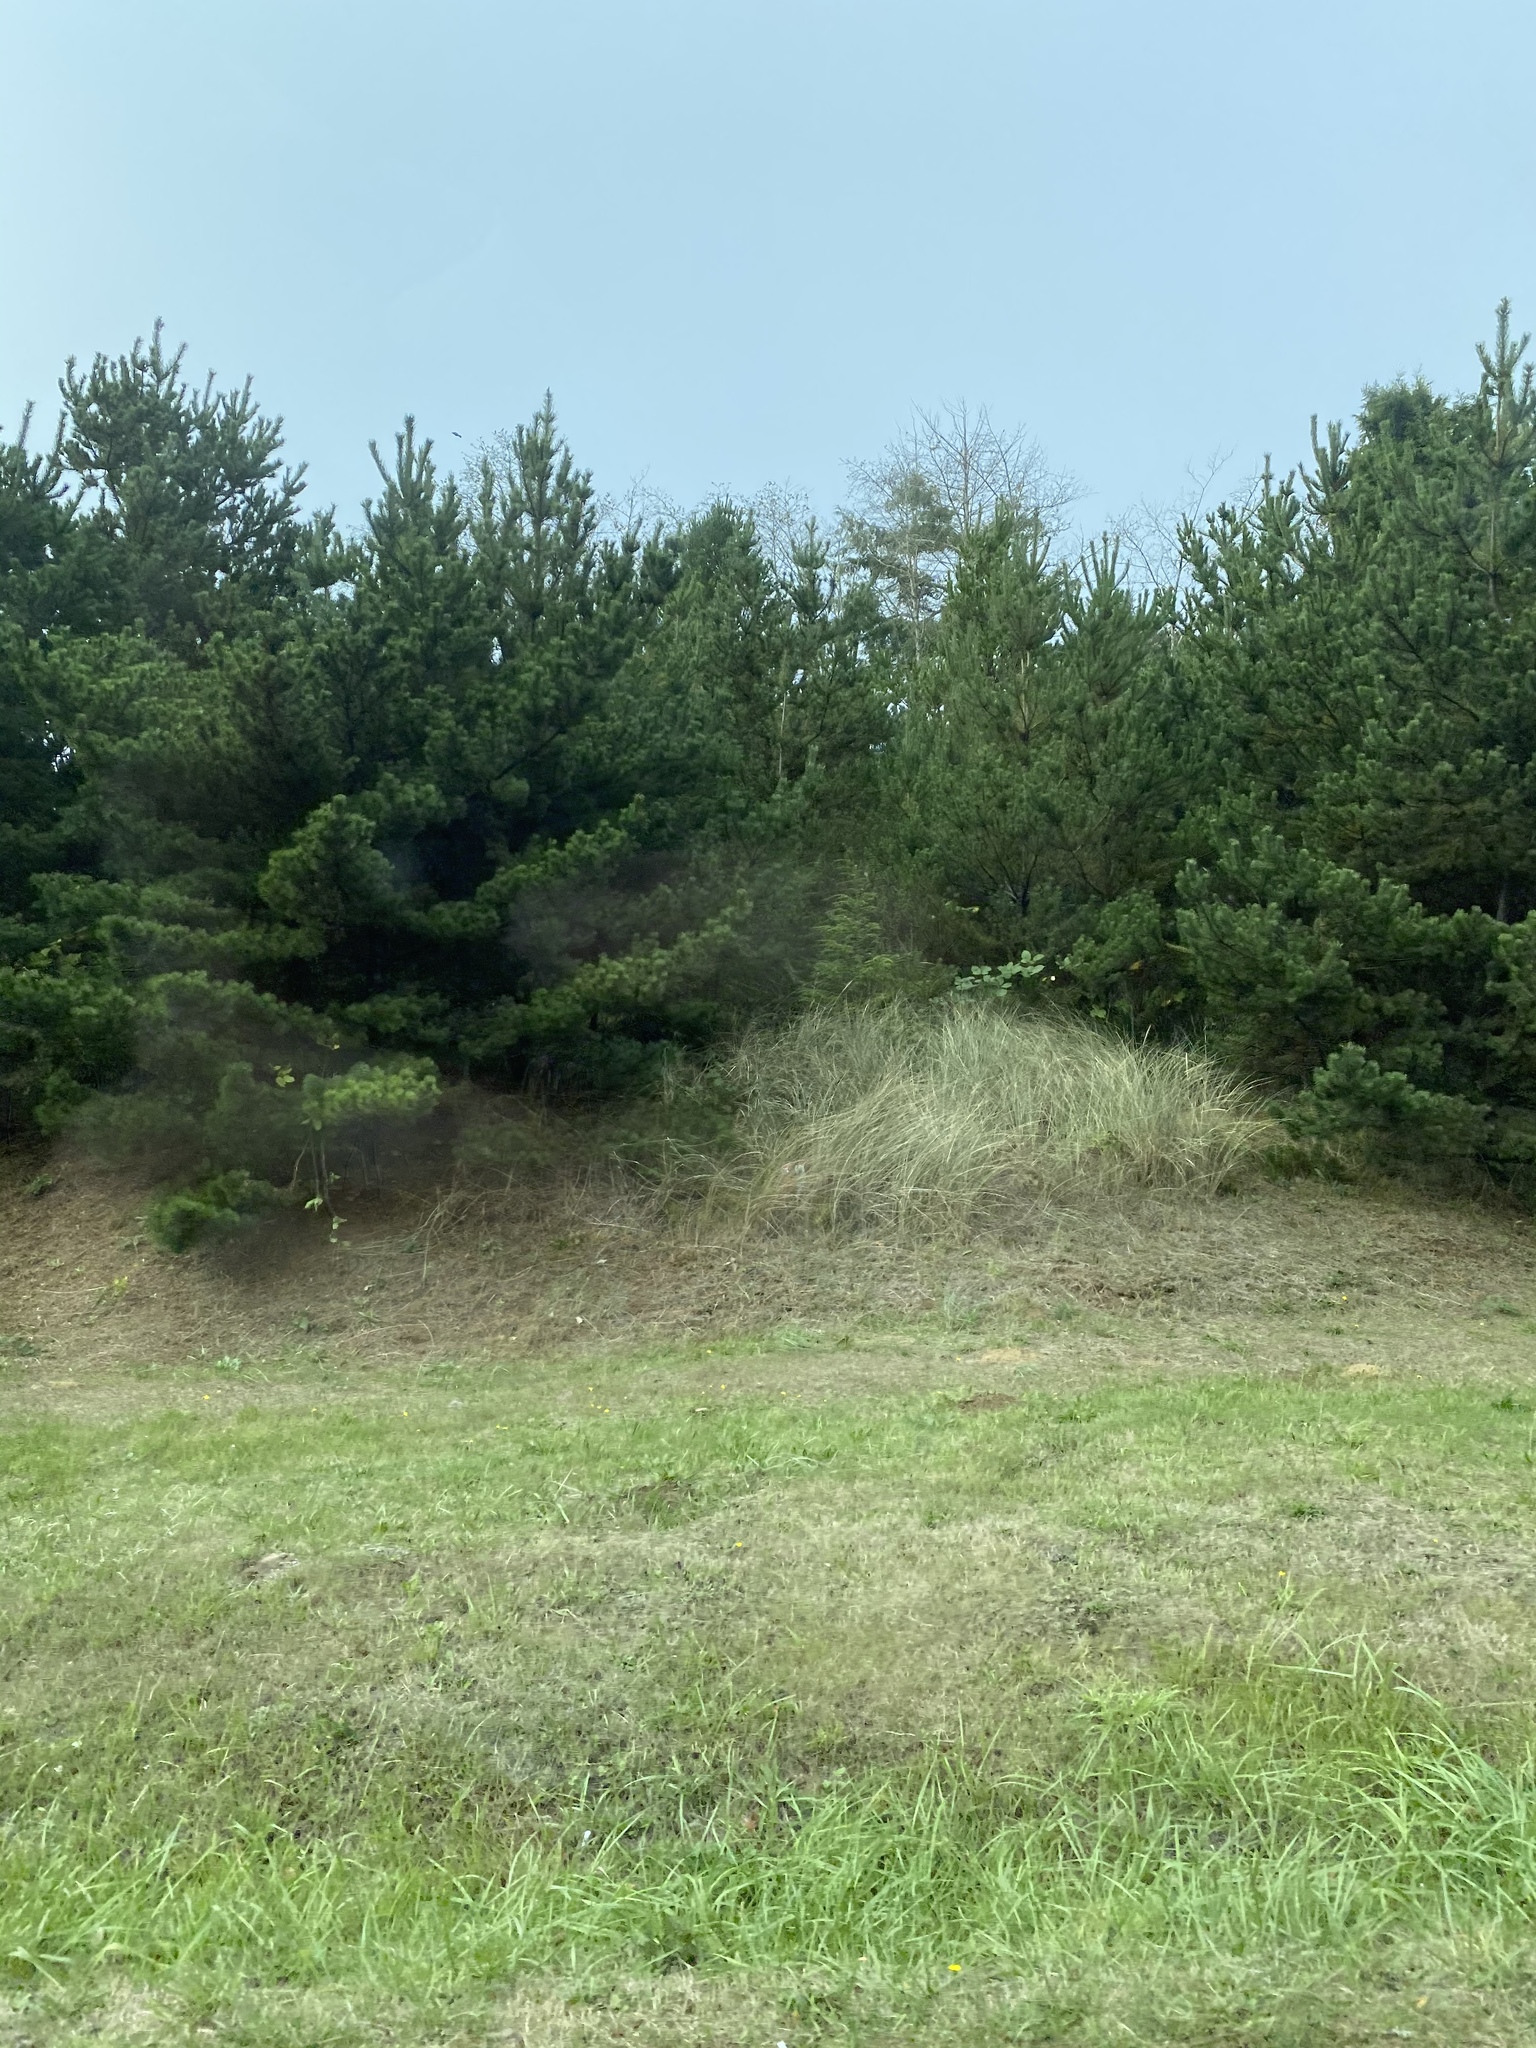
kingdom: Plantae
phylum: Tracheophyta
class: Pinopsida
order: Pinales
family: Pinaceae
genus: Pinus
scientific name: Pinus contorta
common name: Lodgepole pine
